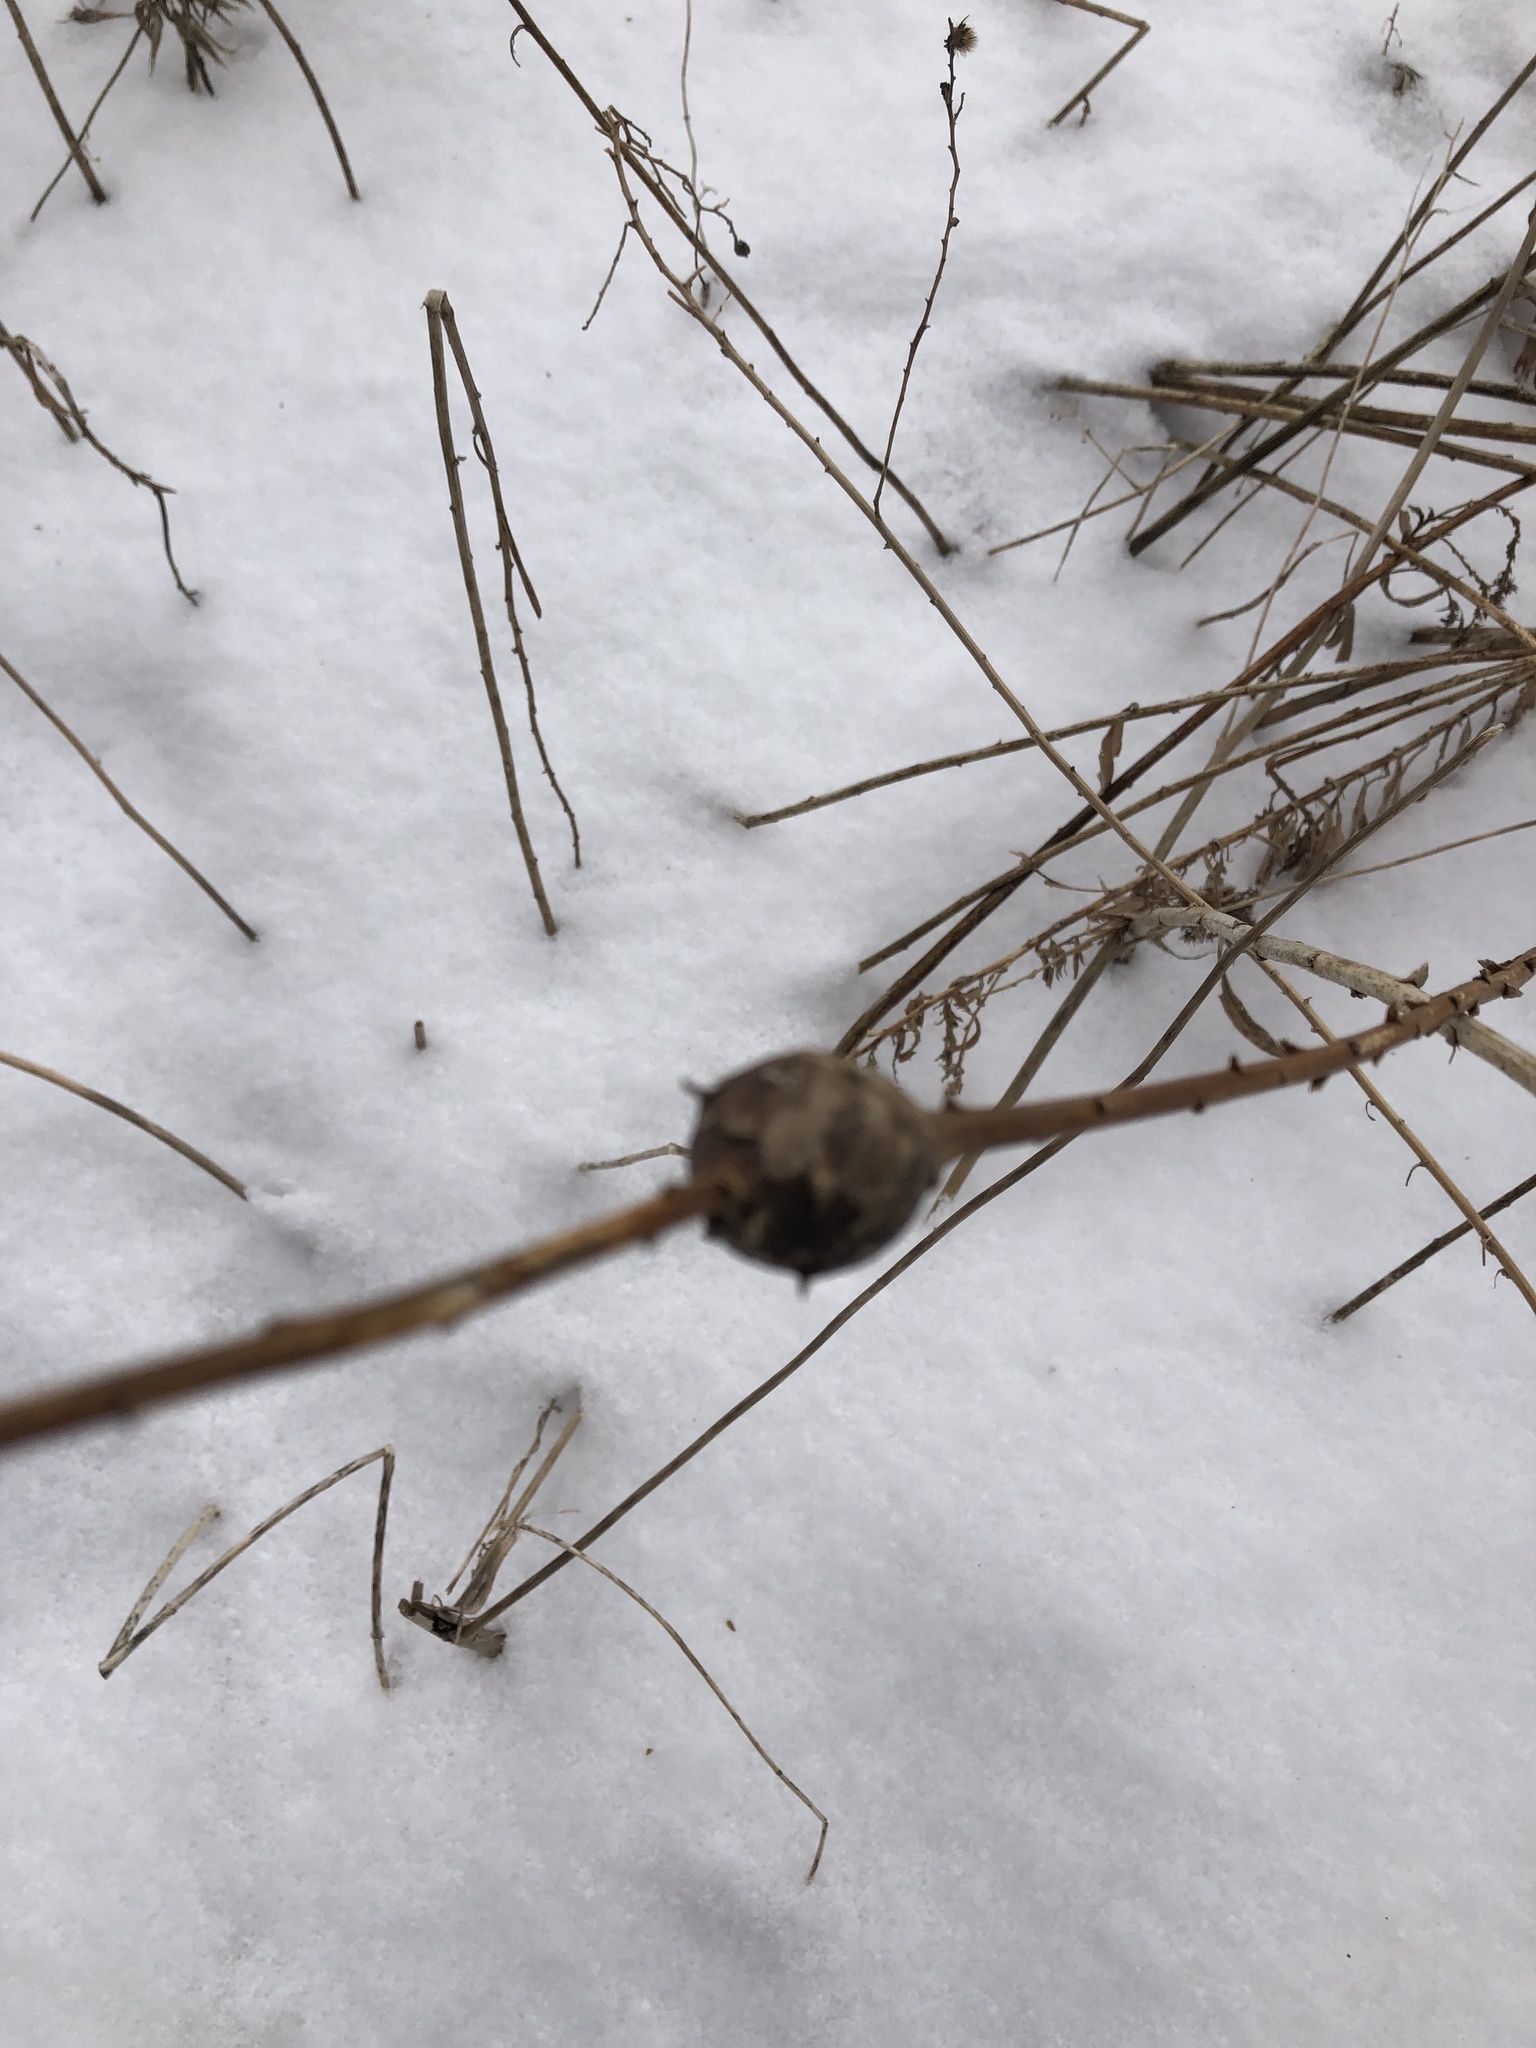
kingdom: Animalia
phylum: Arthropoda
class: Insecta
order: Diptera
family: Tephritidae
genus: Eurosta
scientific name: Eurosta solidaginis
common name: Goldenrod gall fly
